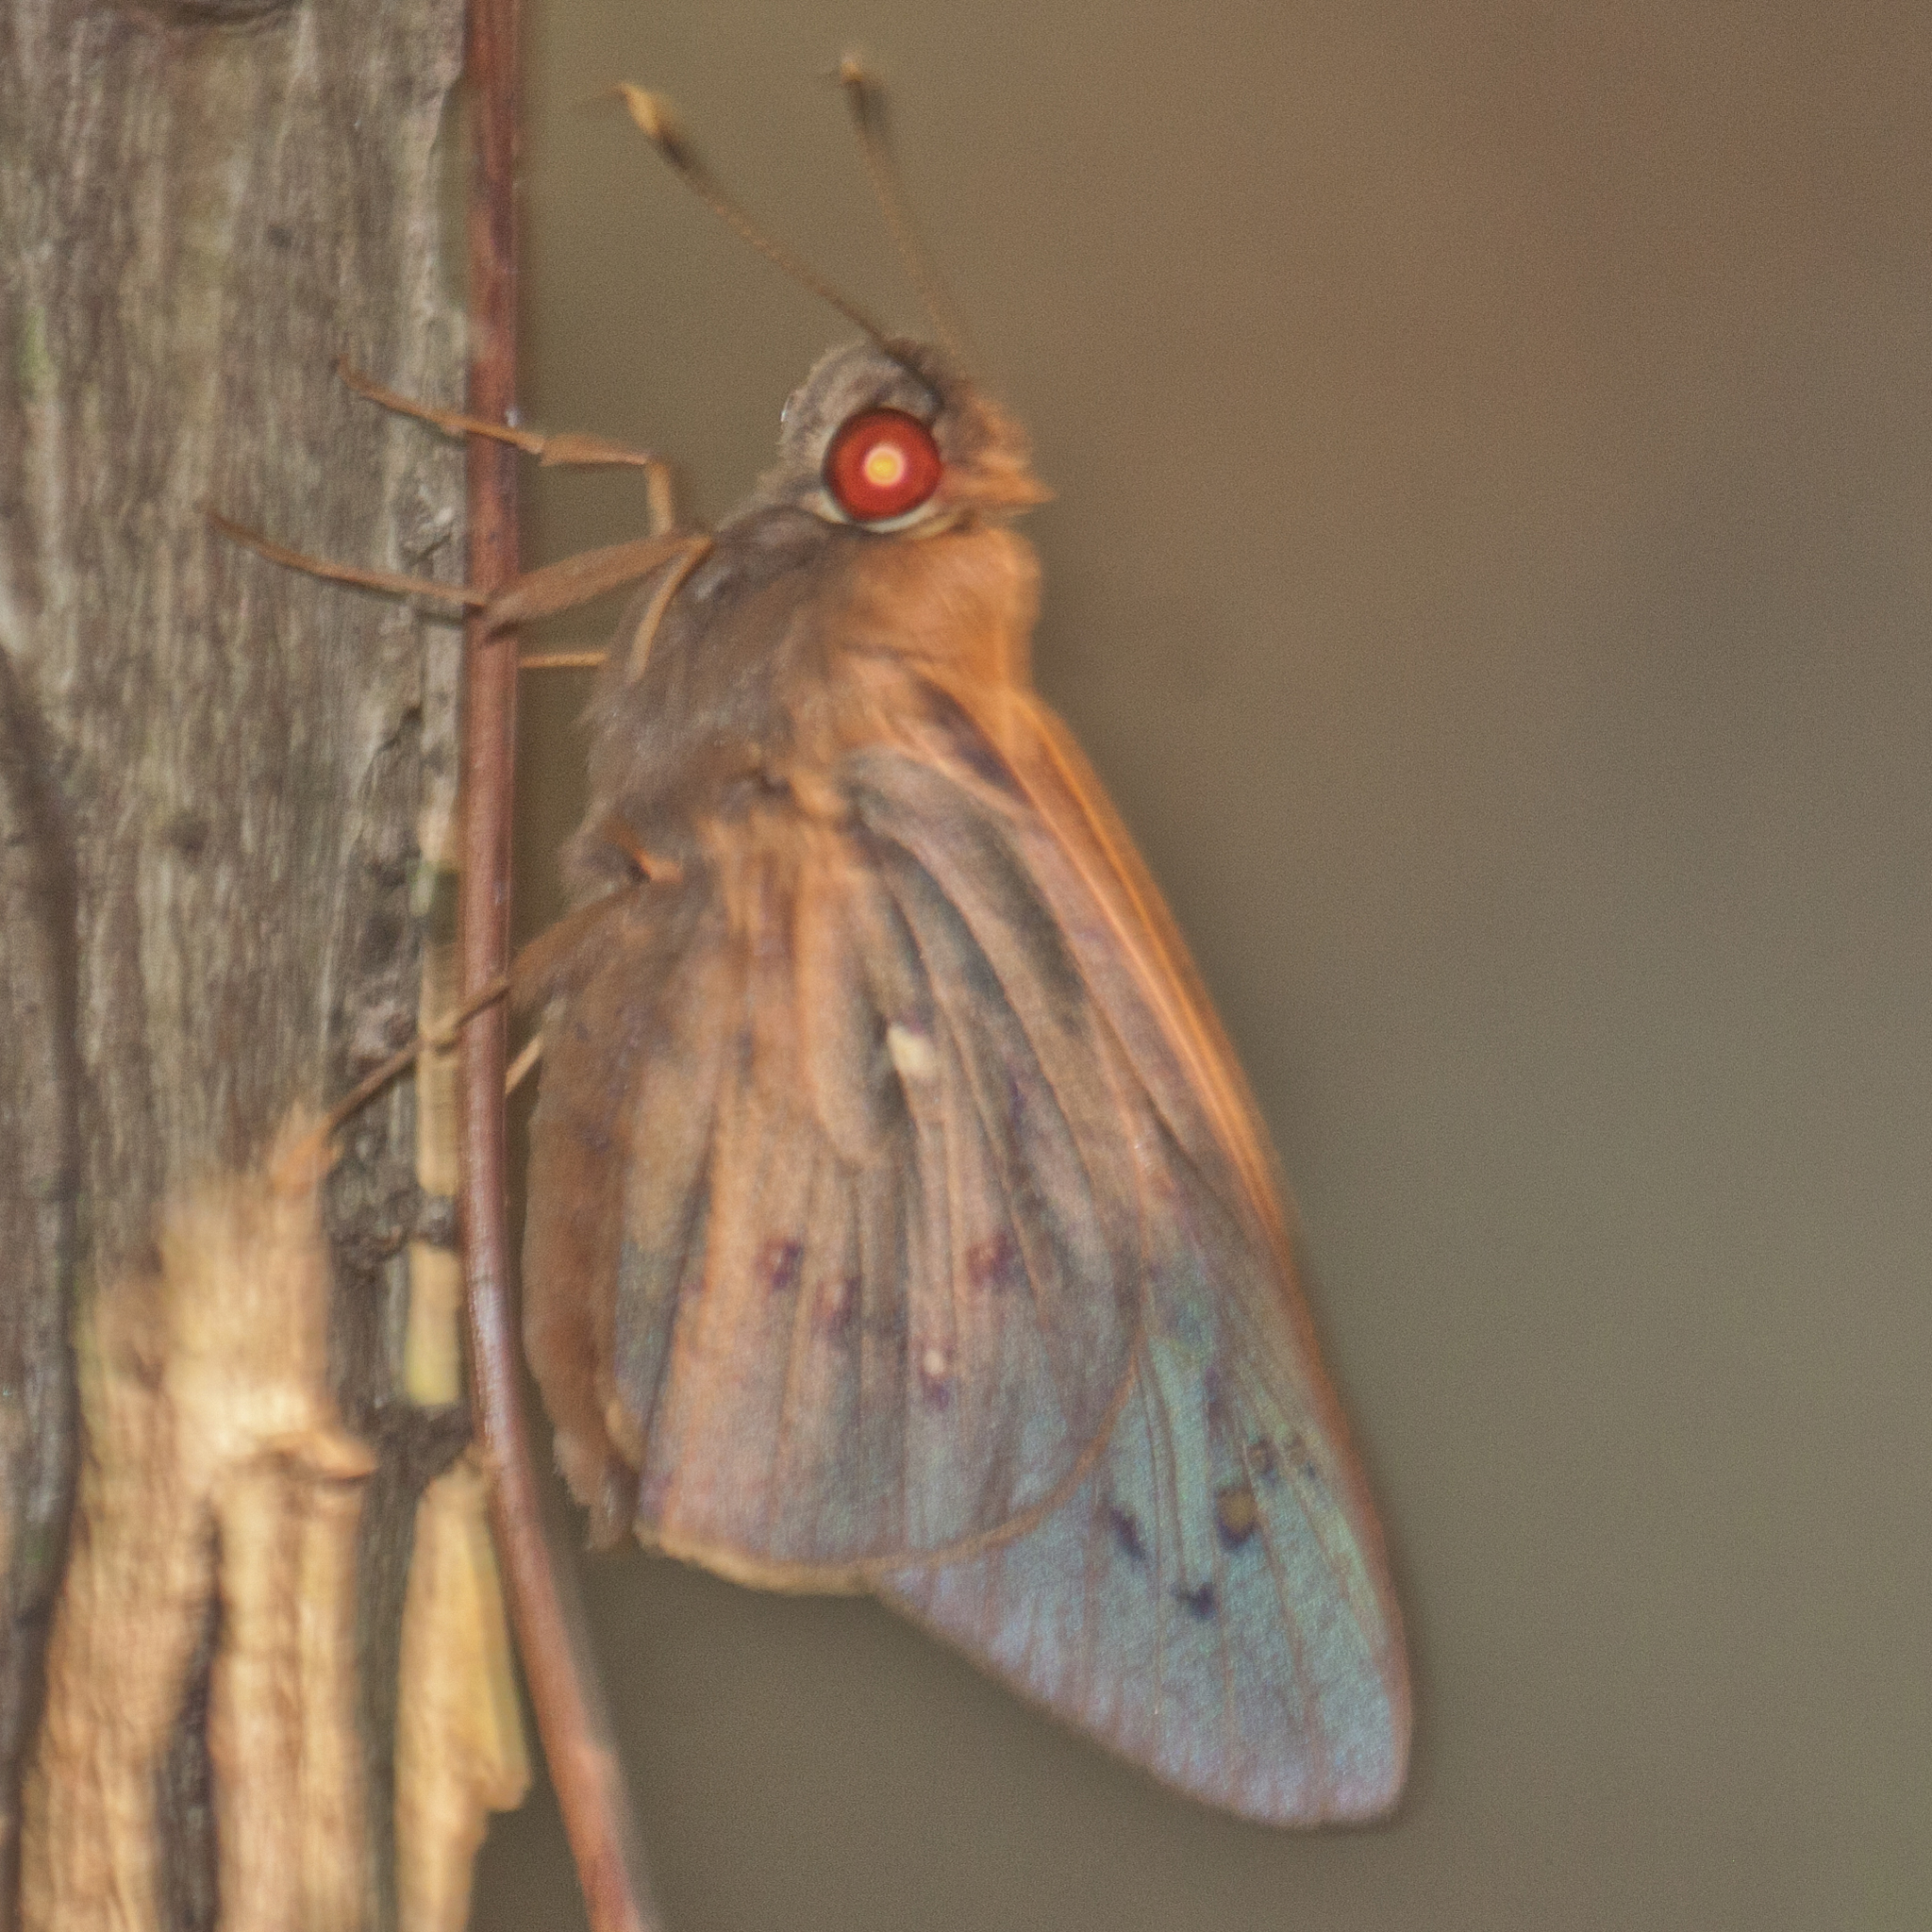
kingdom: Animalia
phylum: Arthropoda
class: Insecta
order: Lepidoptera
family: Hesperiidae
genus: Hidari
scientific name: Hidari irava
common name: Coconut skipper
